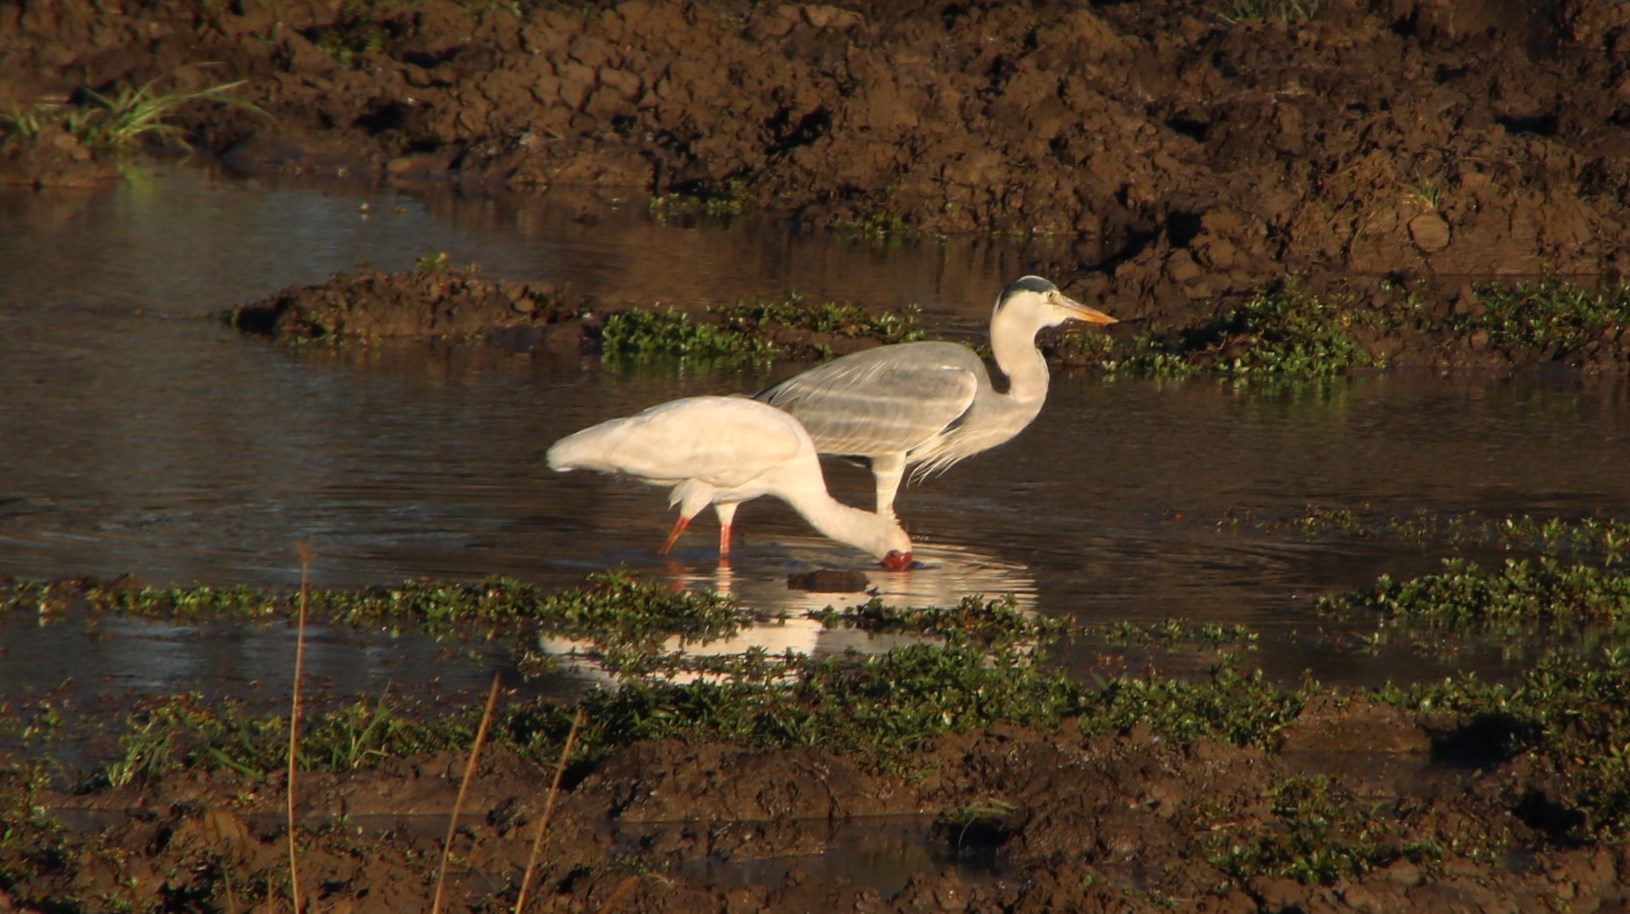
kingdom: Animalia
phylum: Chordata
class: Aves
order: Pelecaniformes
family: Threskiornithidae
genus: Platalea
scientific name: Platalea alba
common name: African spoonbill
